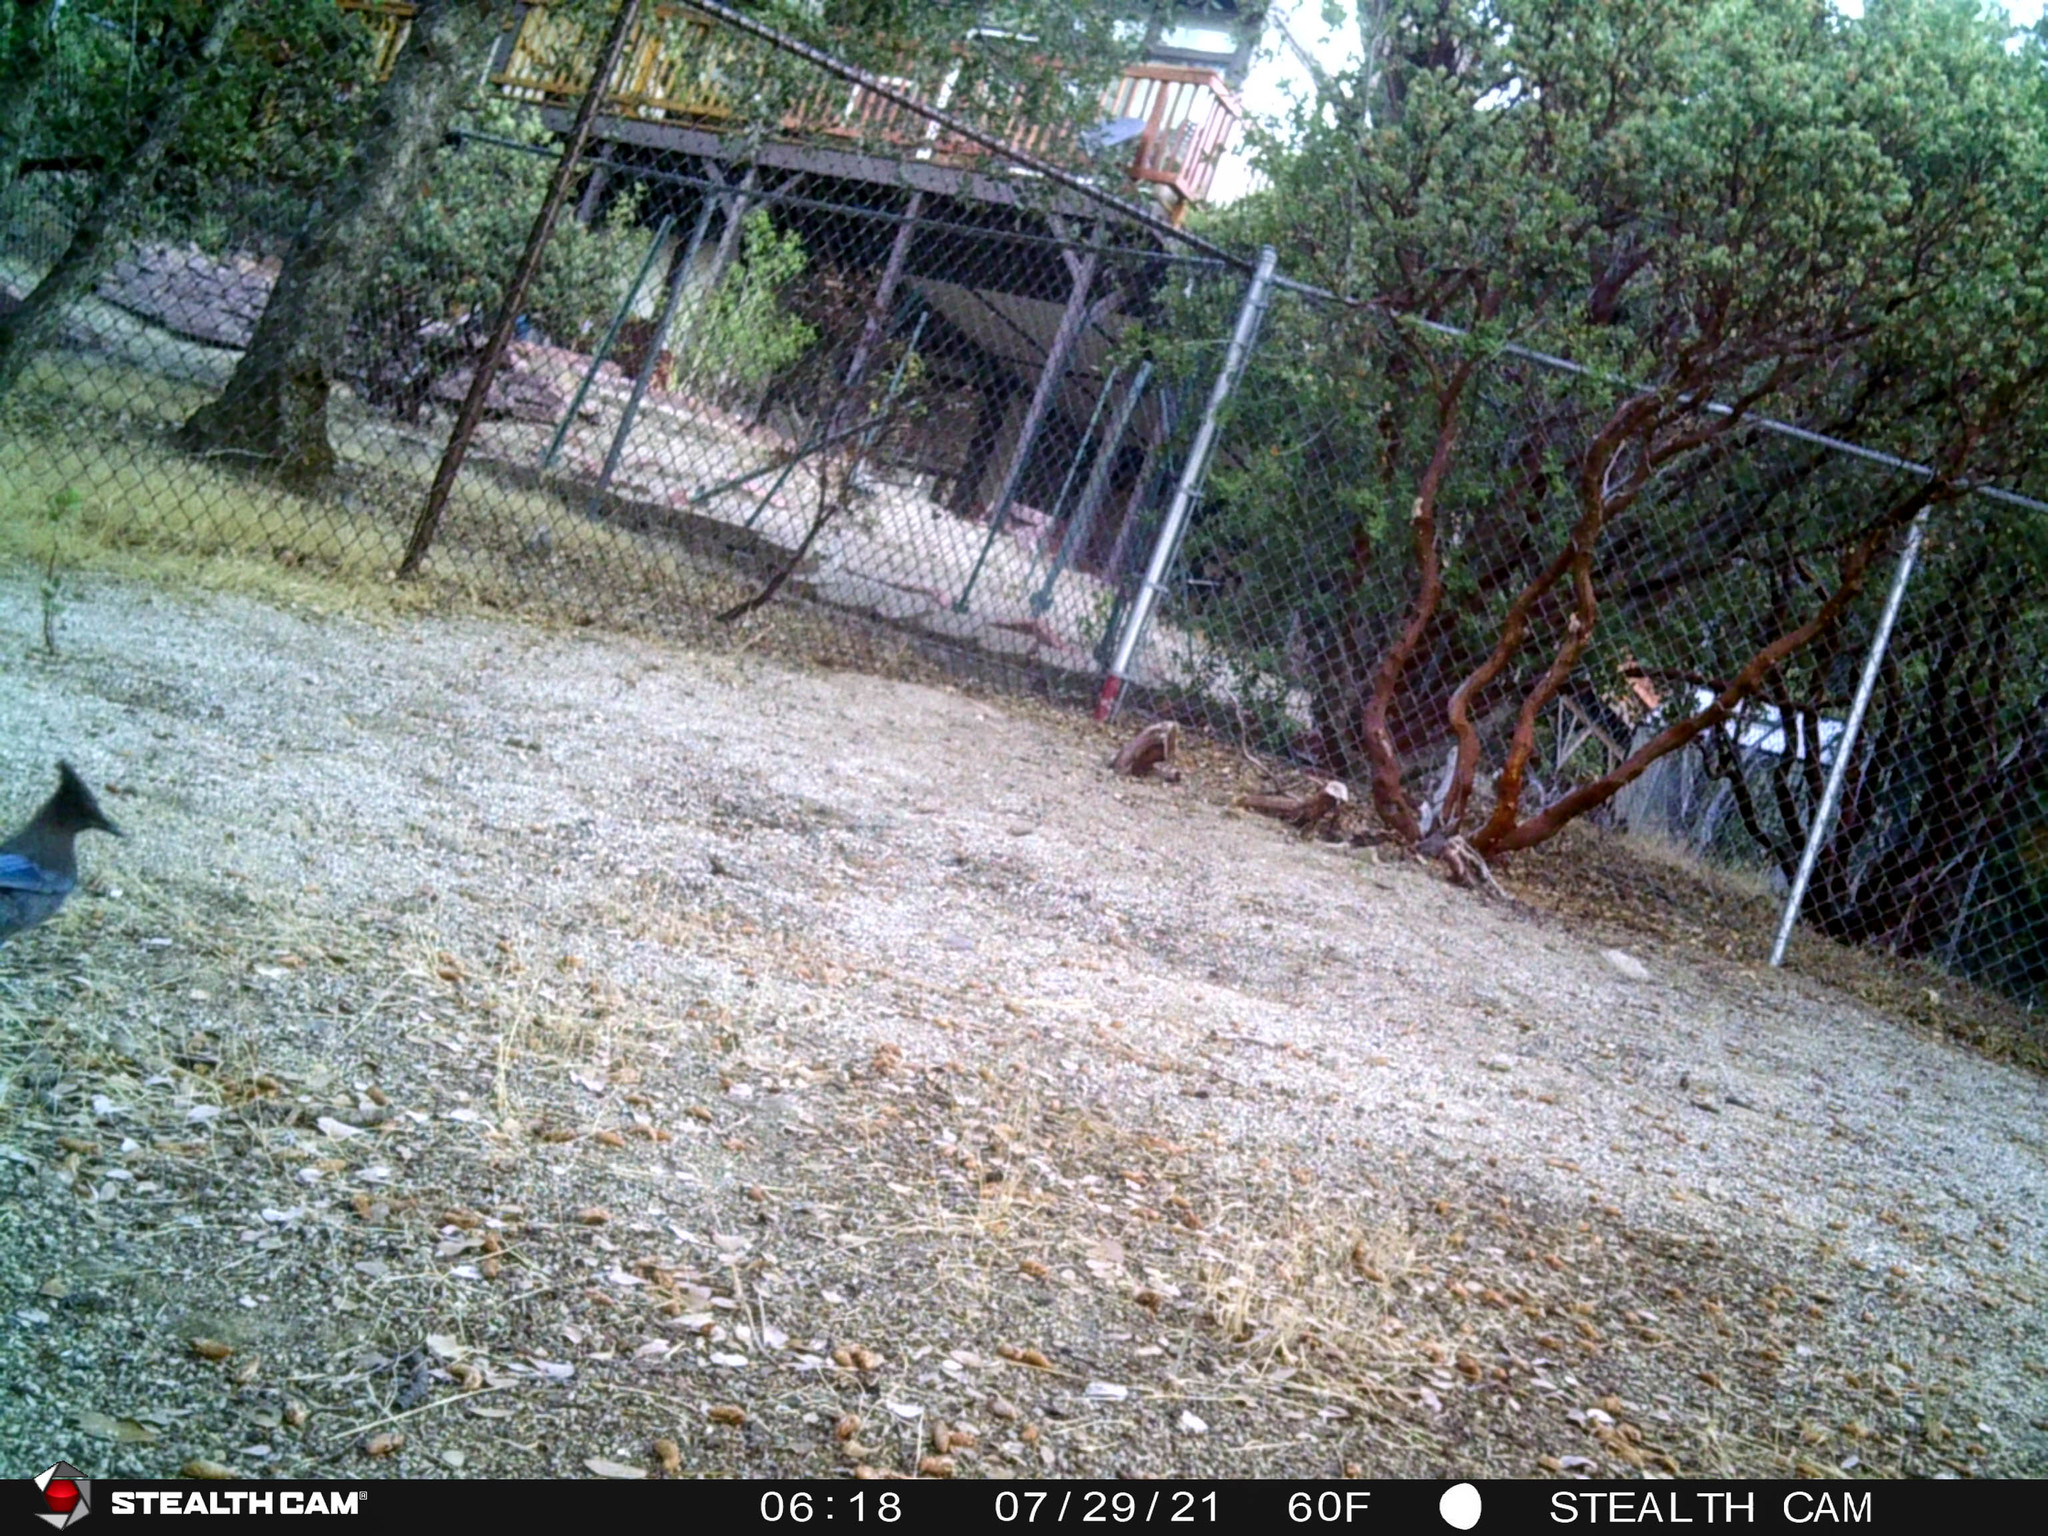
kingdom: Animalia
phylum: Chordata
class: Aves
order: Passeriformes
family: Corvidae
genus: Cyanocitta
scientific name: Cyanocitta stelleri
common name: Steller's jay
